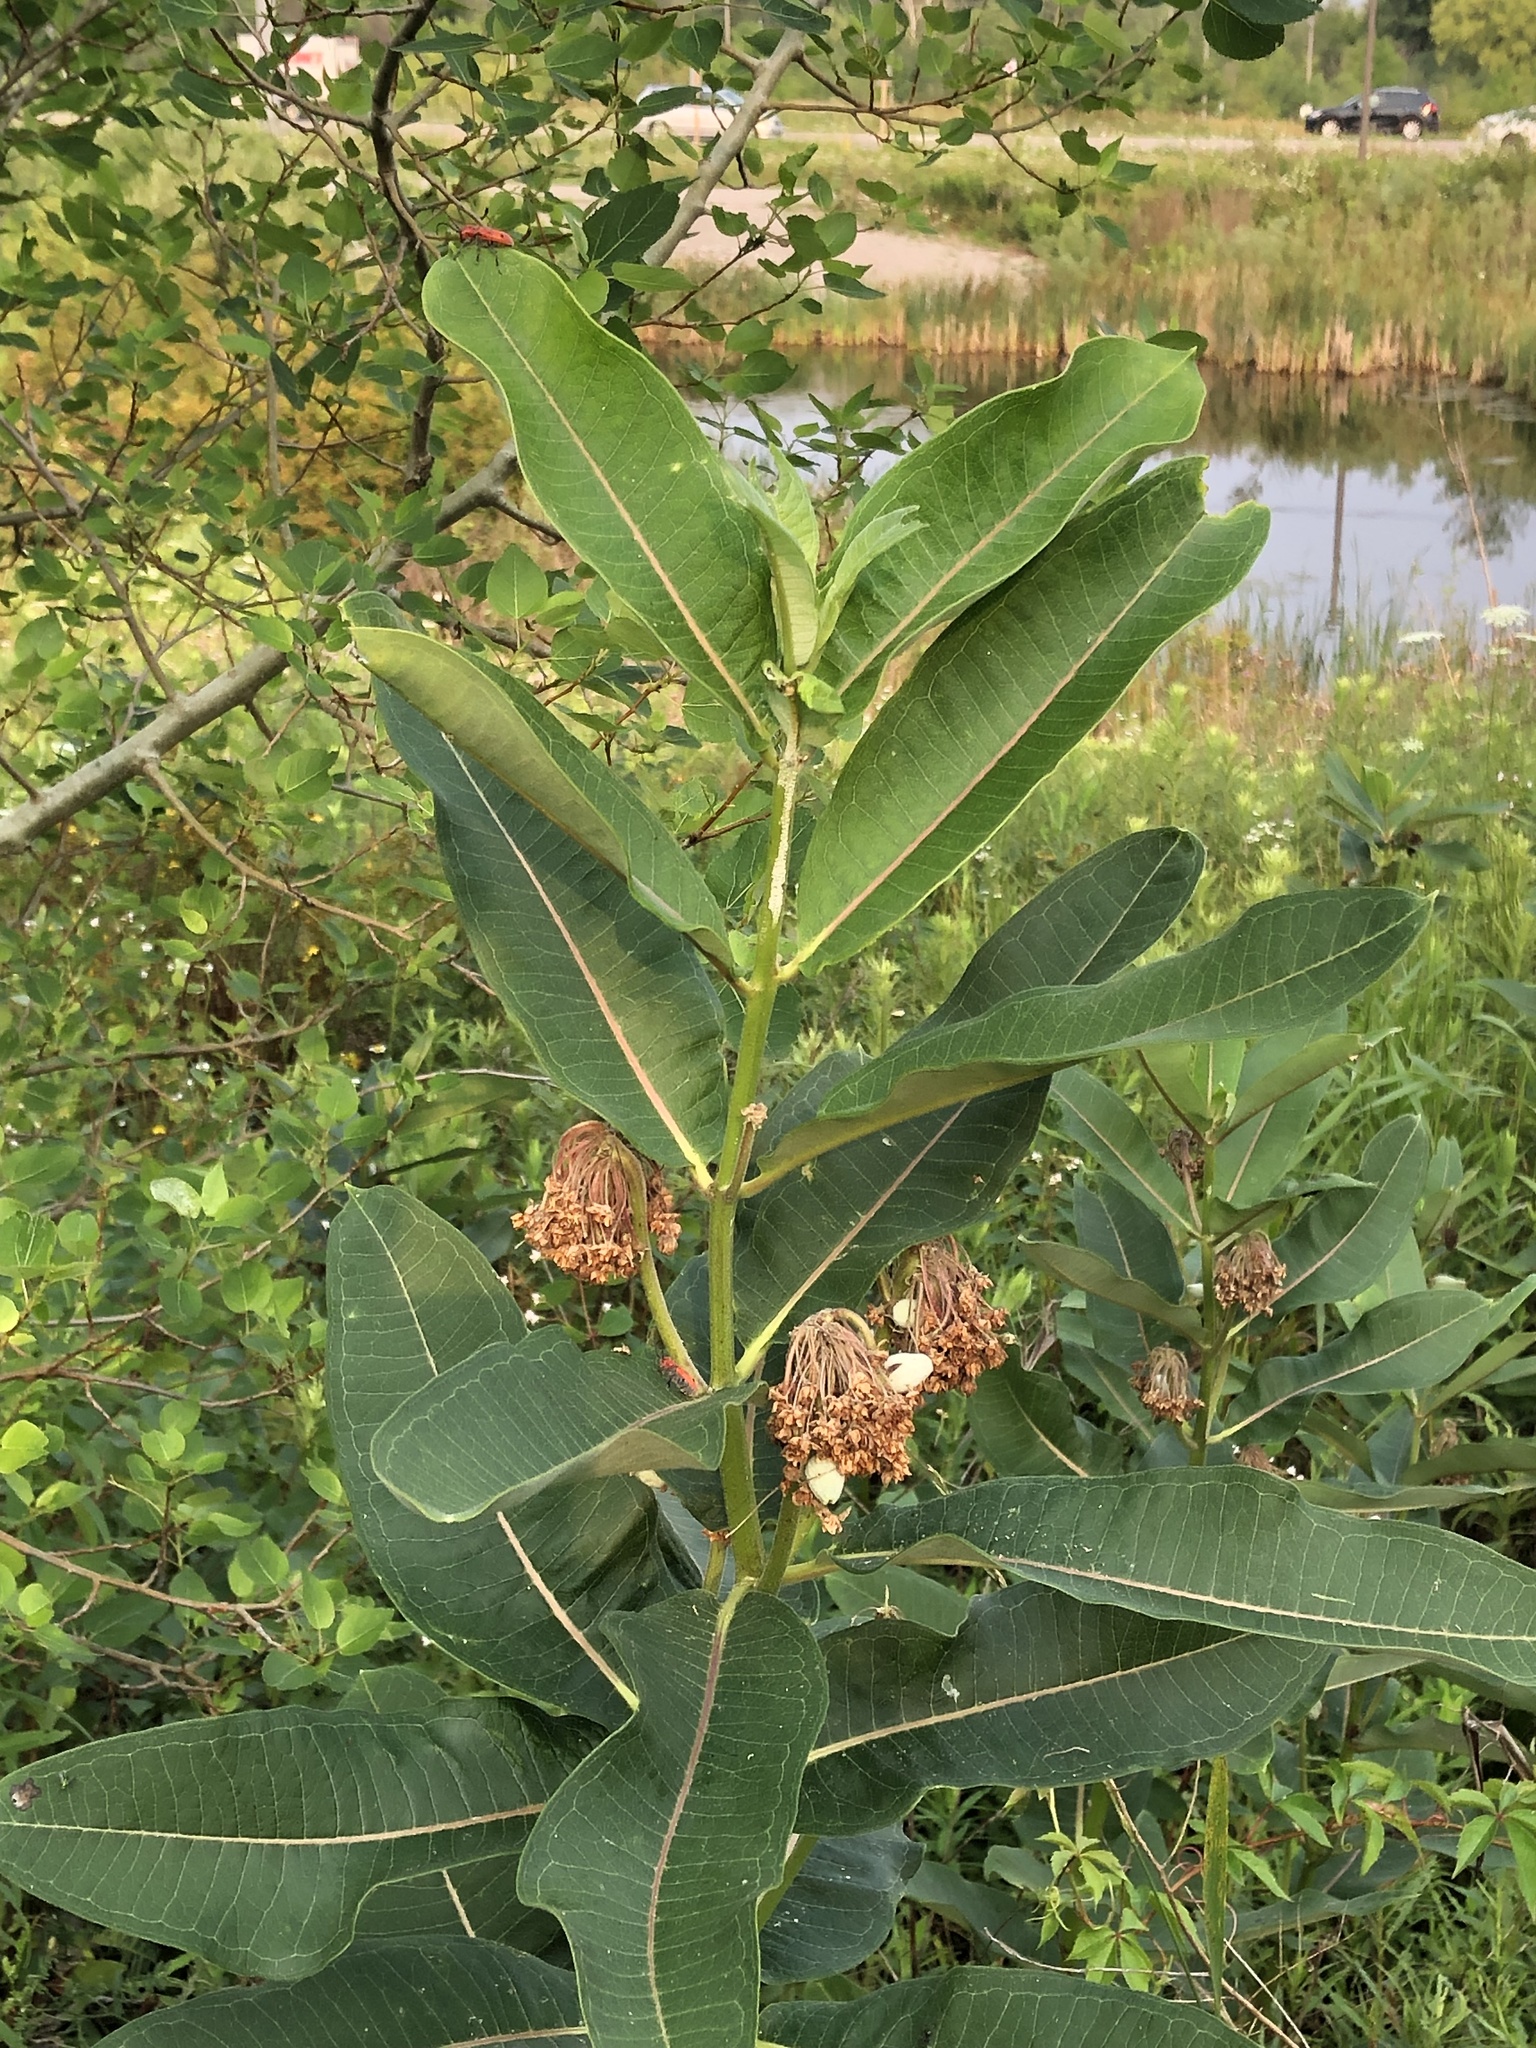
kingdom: Plantae
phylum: Tracheophyta
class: Magnoliopsida
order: Gentianales
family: Apocynaceae
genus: Asclepias
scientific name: Asclepias syriaca
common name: Common milkweed
